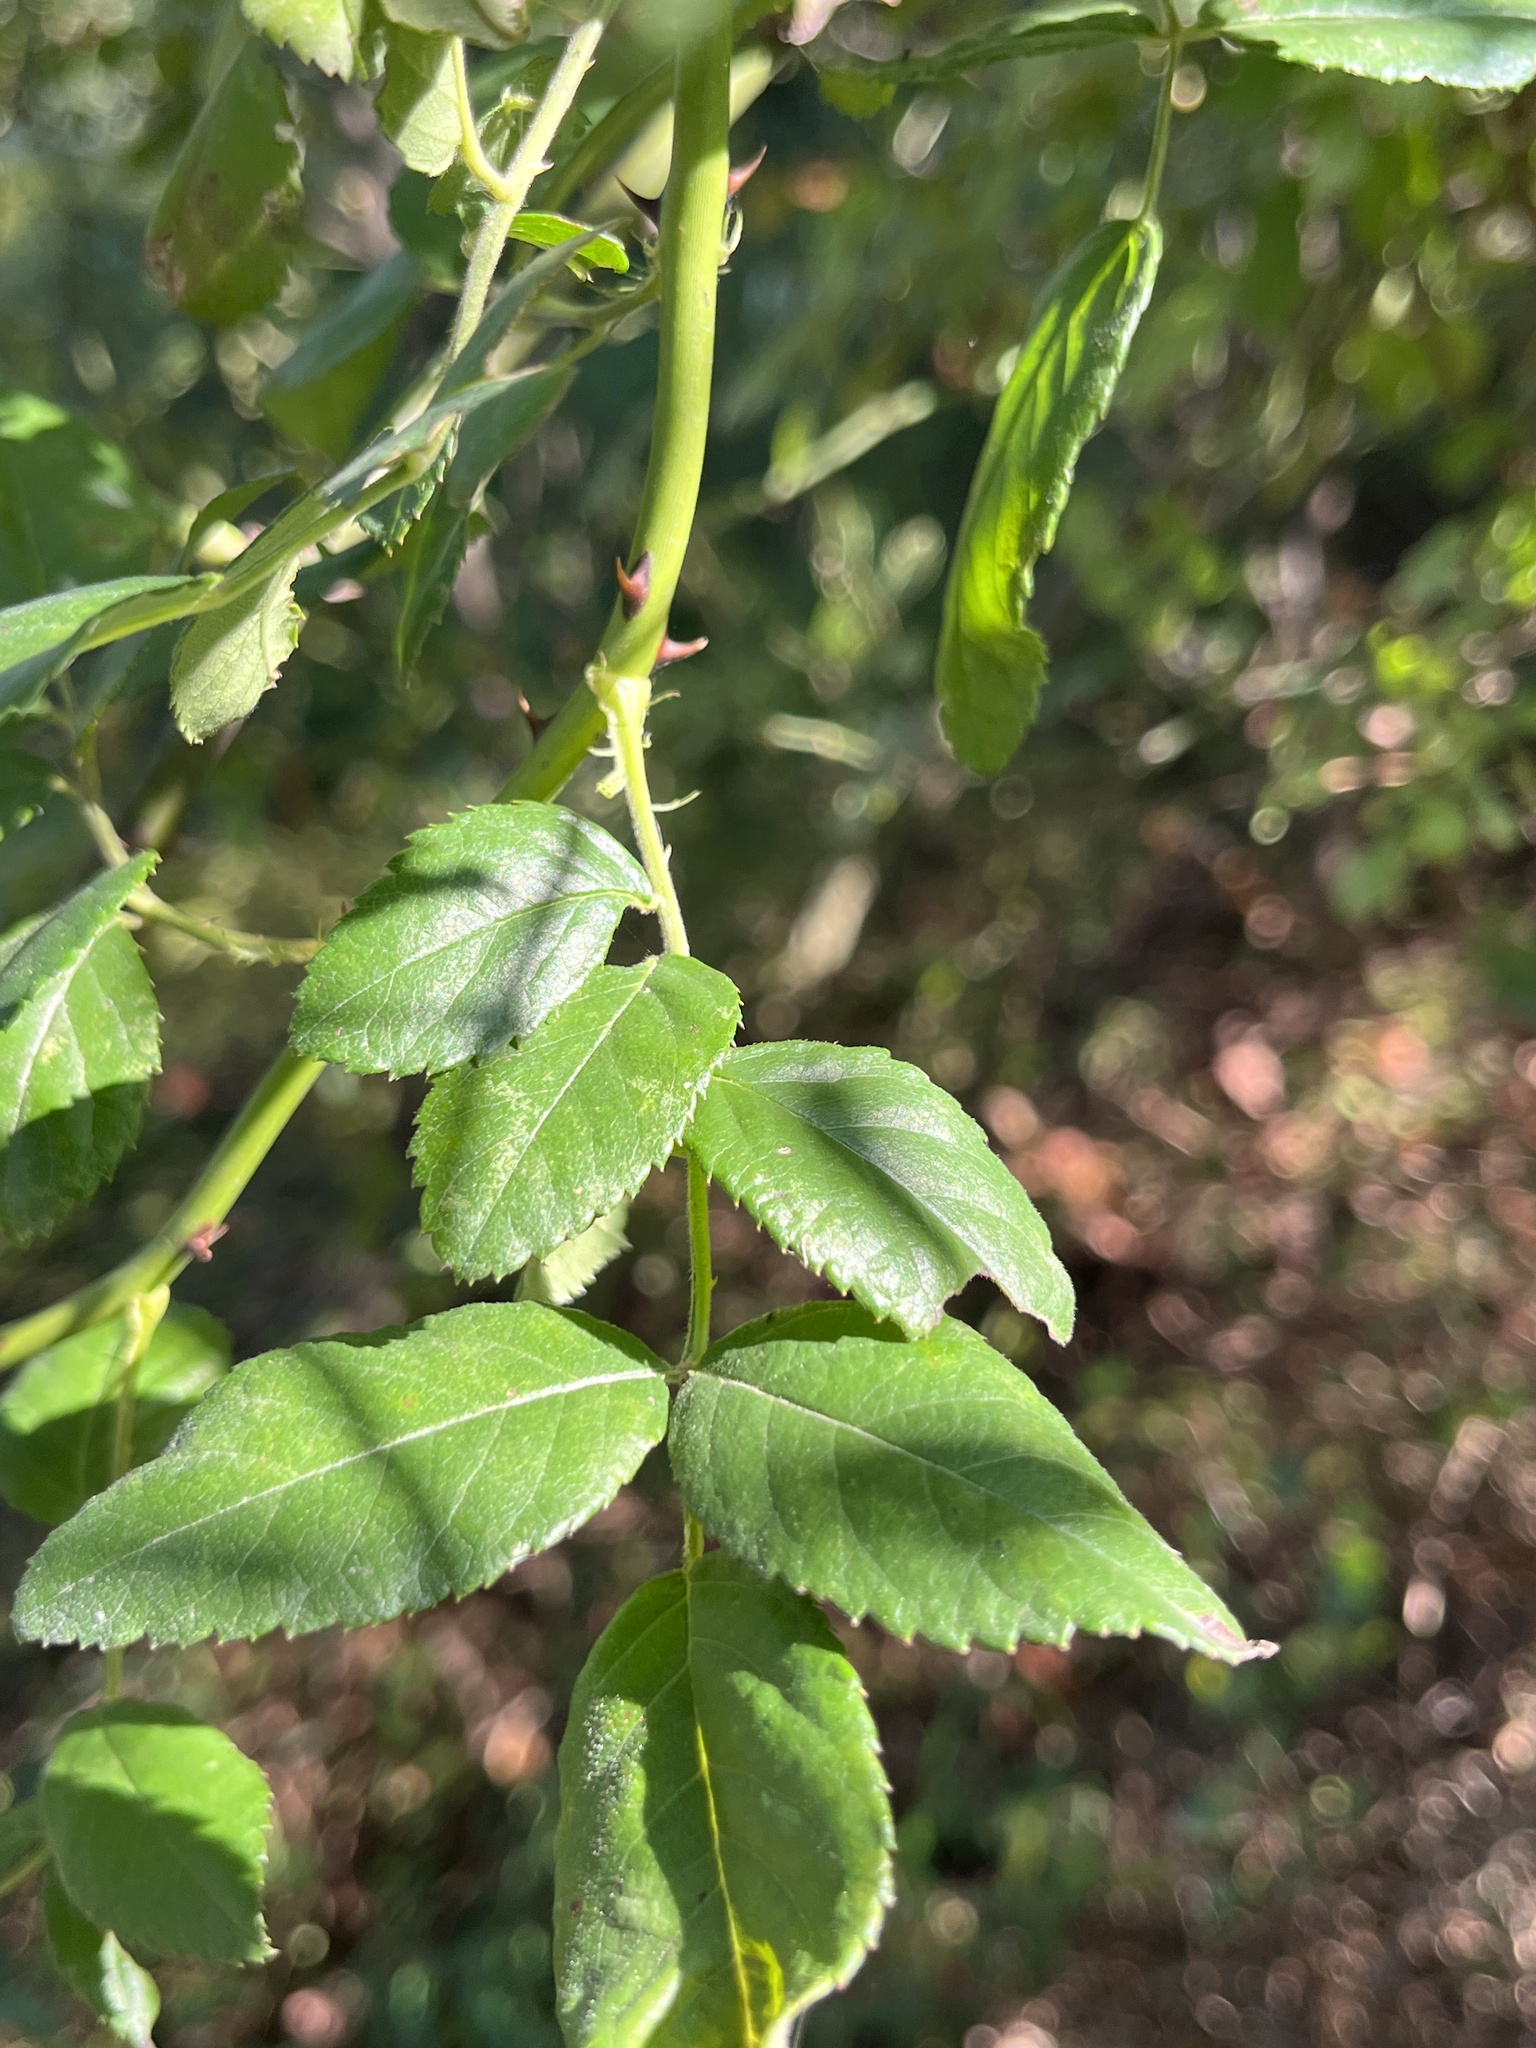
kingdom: Plantae
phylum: Tracheophyta
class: Magnoliopsida
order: Rosales
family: Rosaceae
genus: Rosa
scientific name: Rosa multiflora
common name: Multiflora rose
